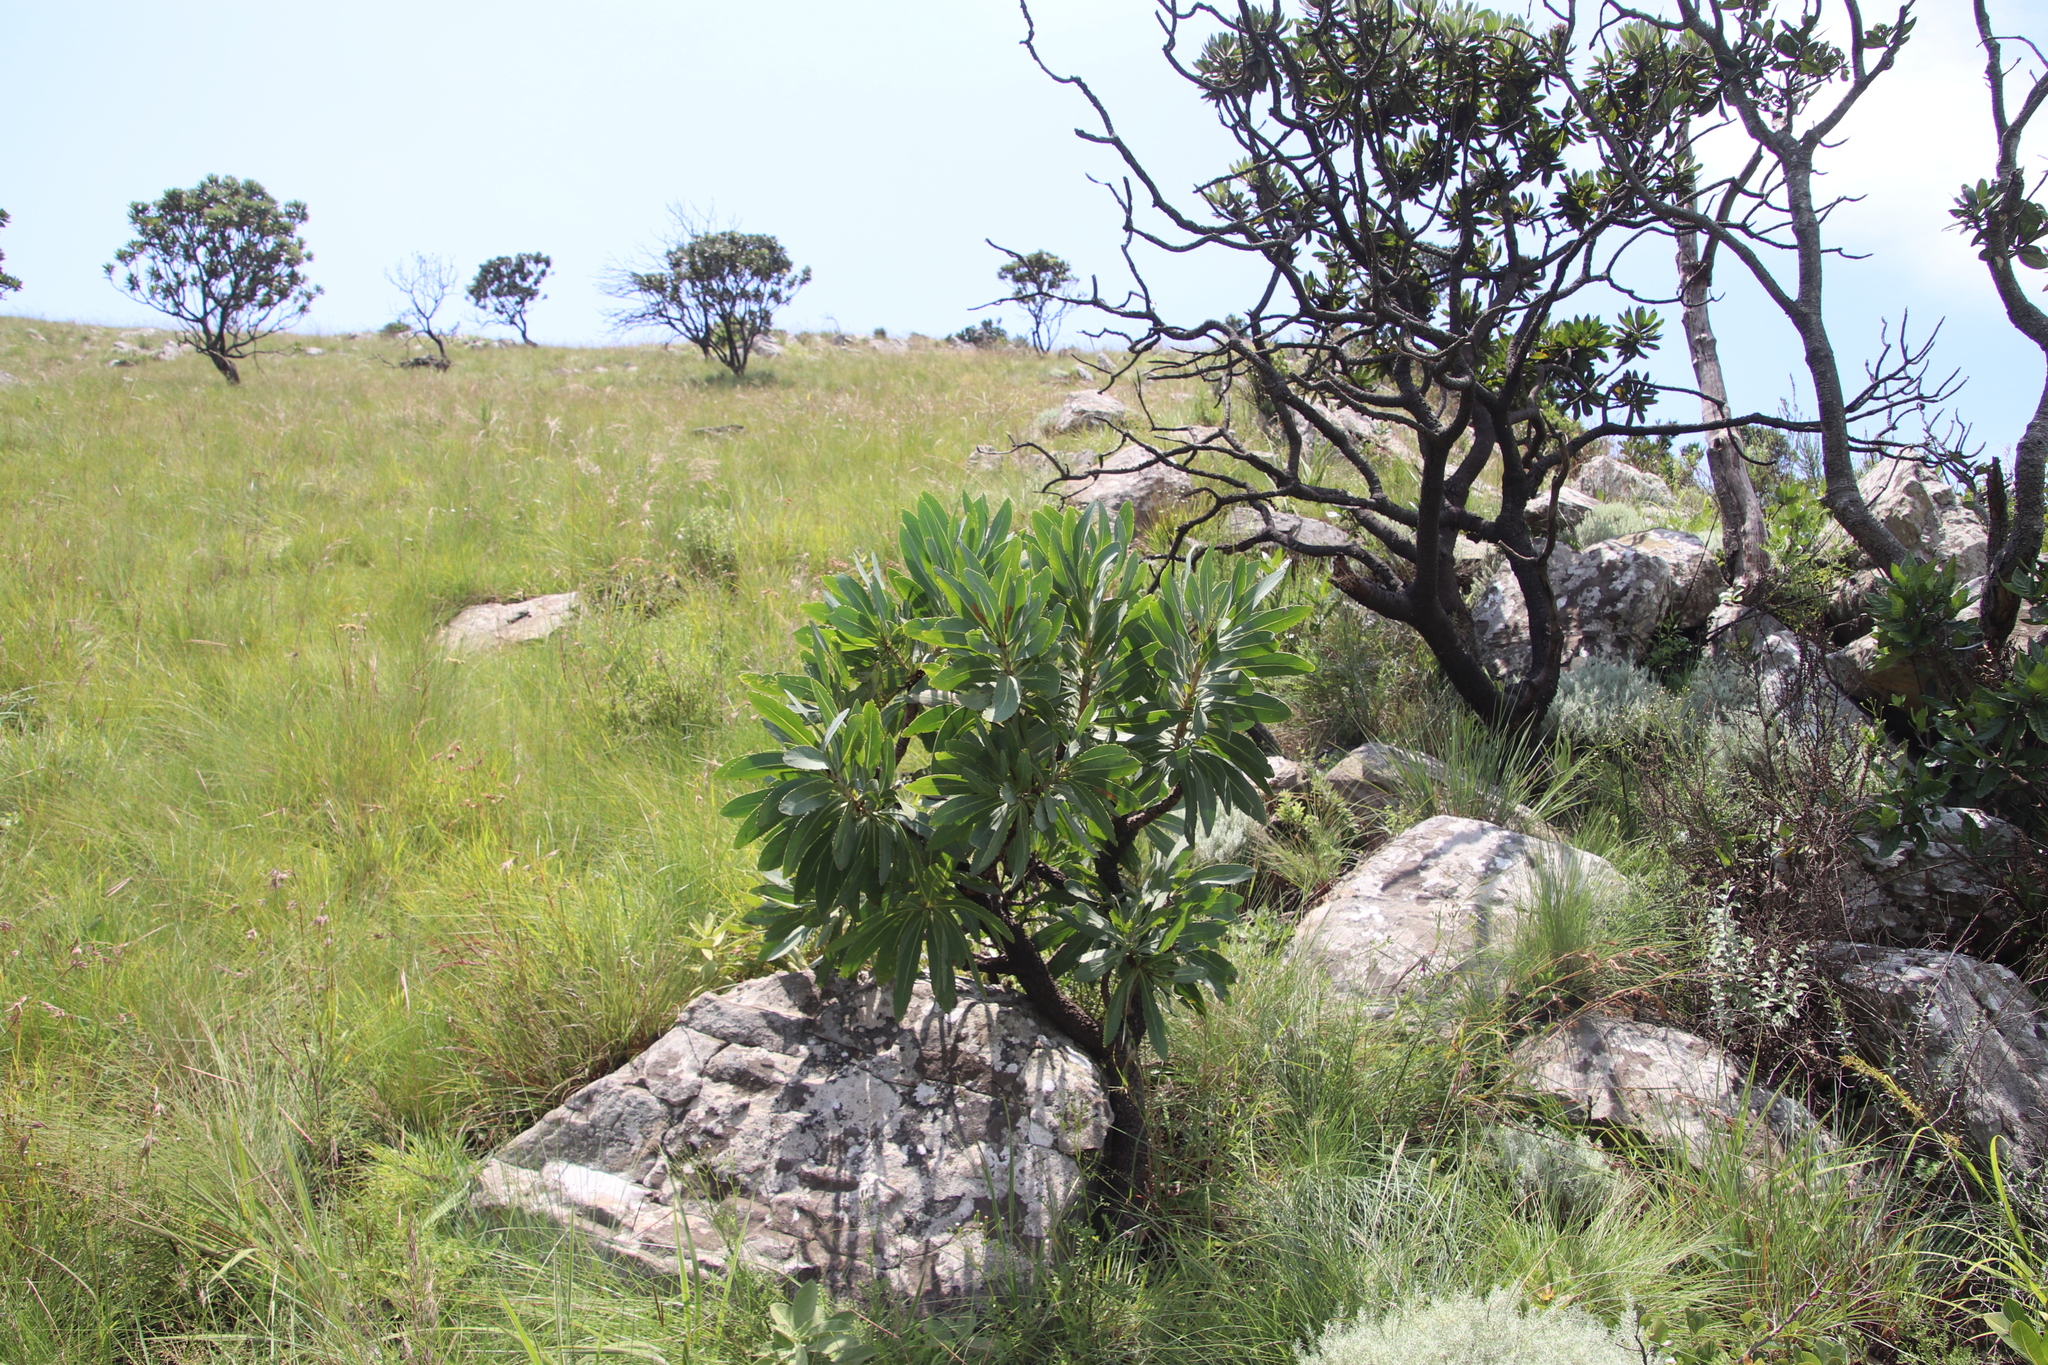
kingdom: Plantae
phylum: Tracheophyta
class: Magnoliopsida
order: Proteales
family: Proteaceae
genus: Protea
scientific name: Protea caffra
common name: Common sugarbush
